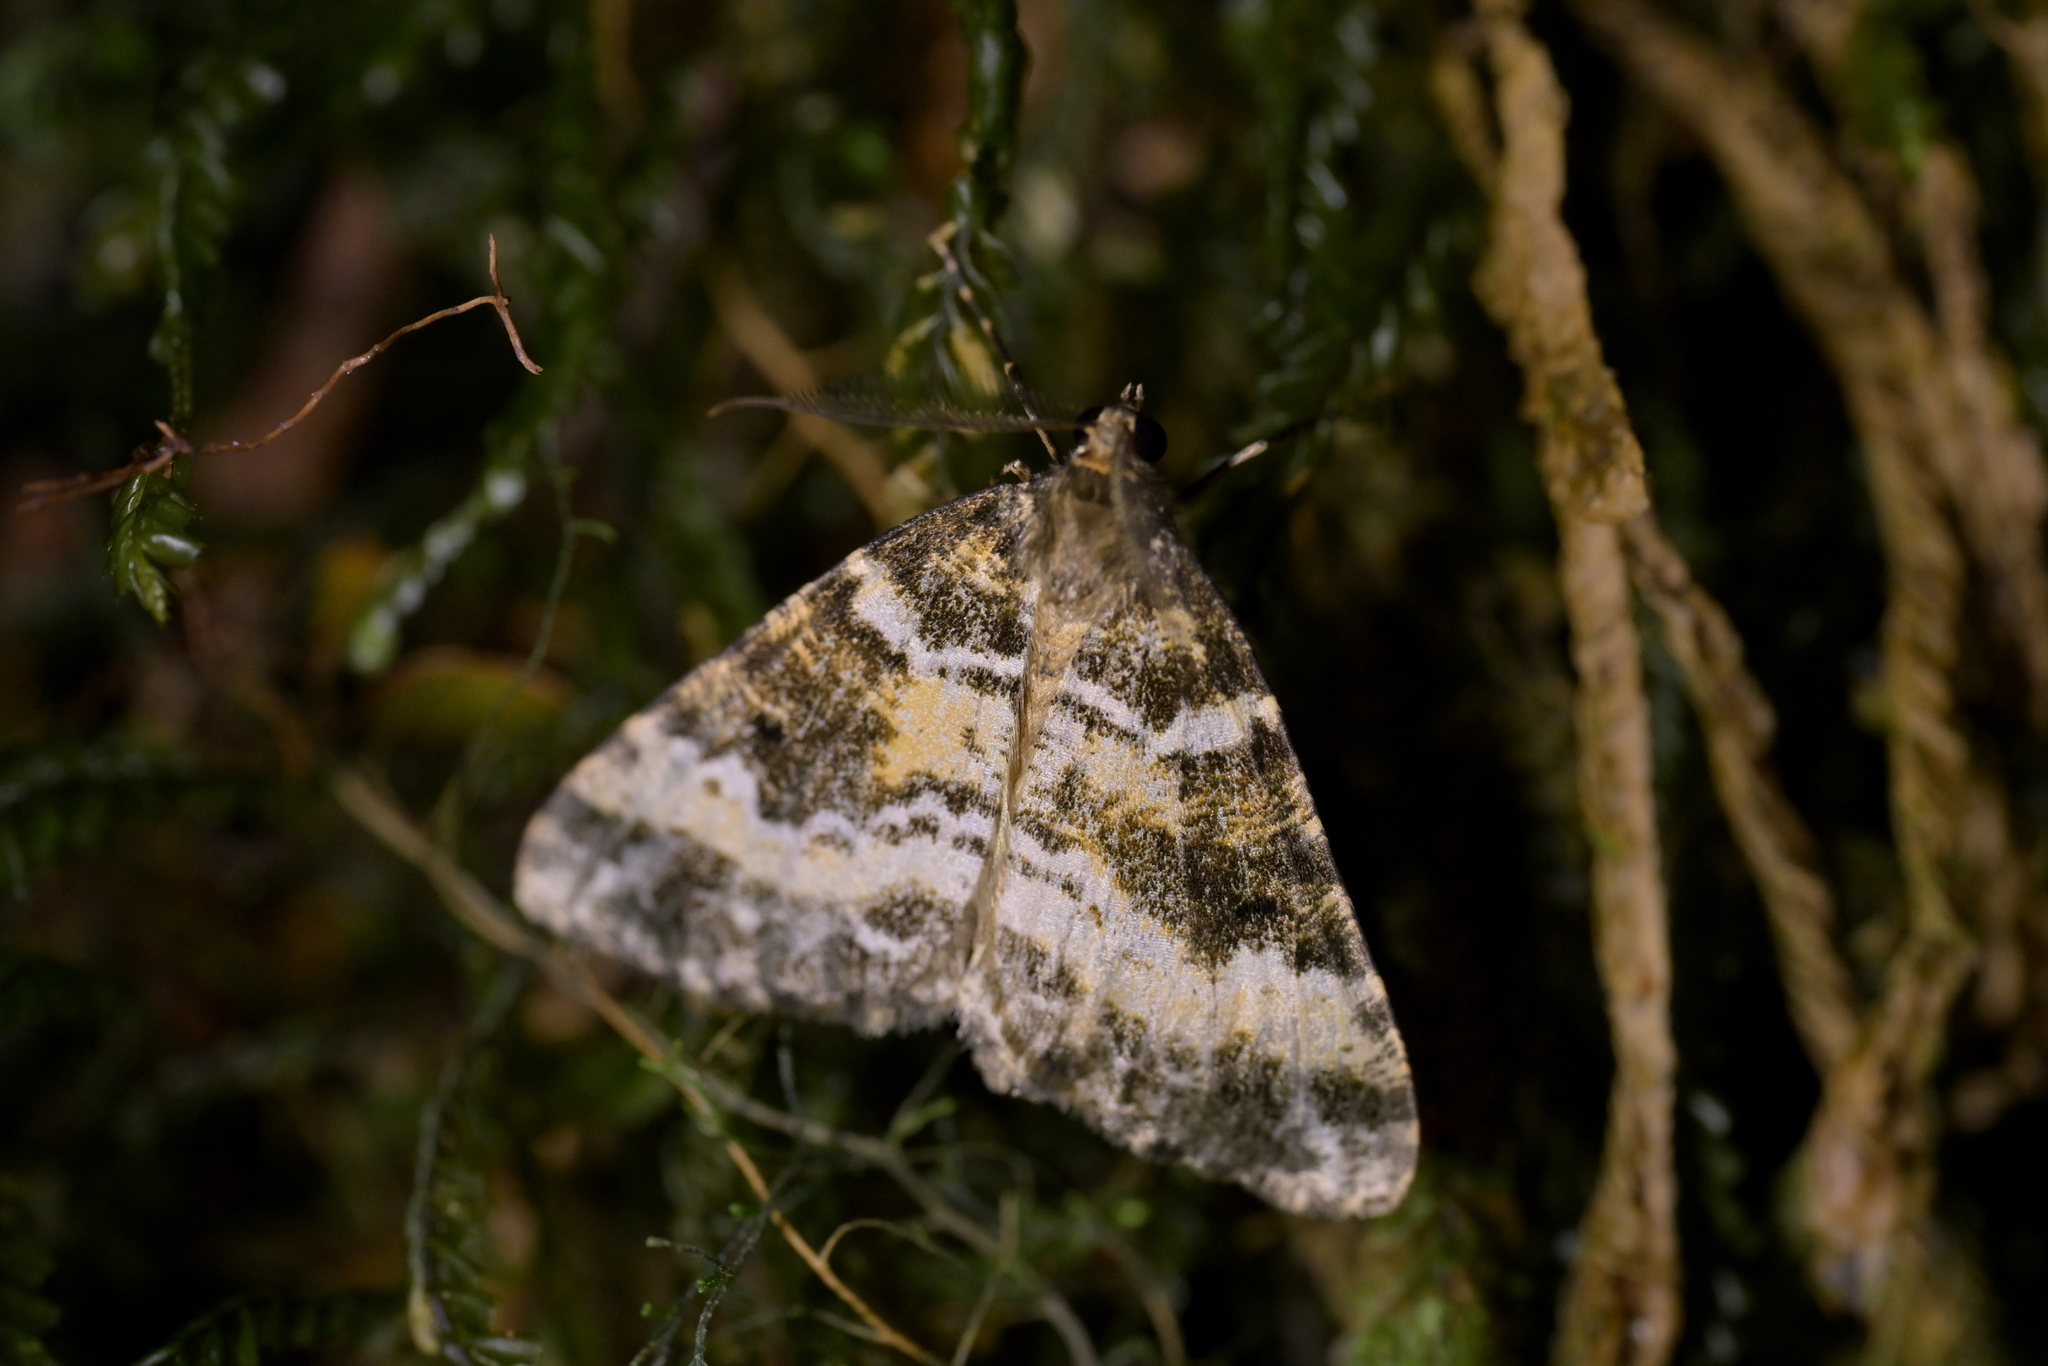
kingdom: Animalia
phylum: Arthropoda
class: Insecta
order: Lepidoptera
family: Geometridae
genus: Pseudocoremia
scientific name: Pseudocoremia productata
